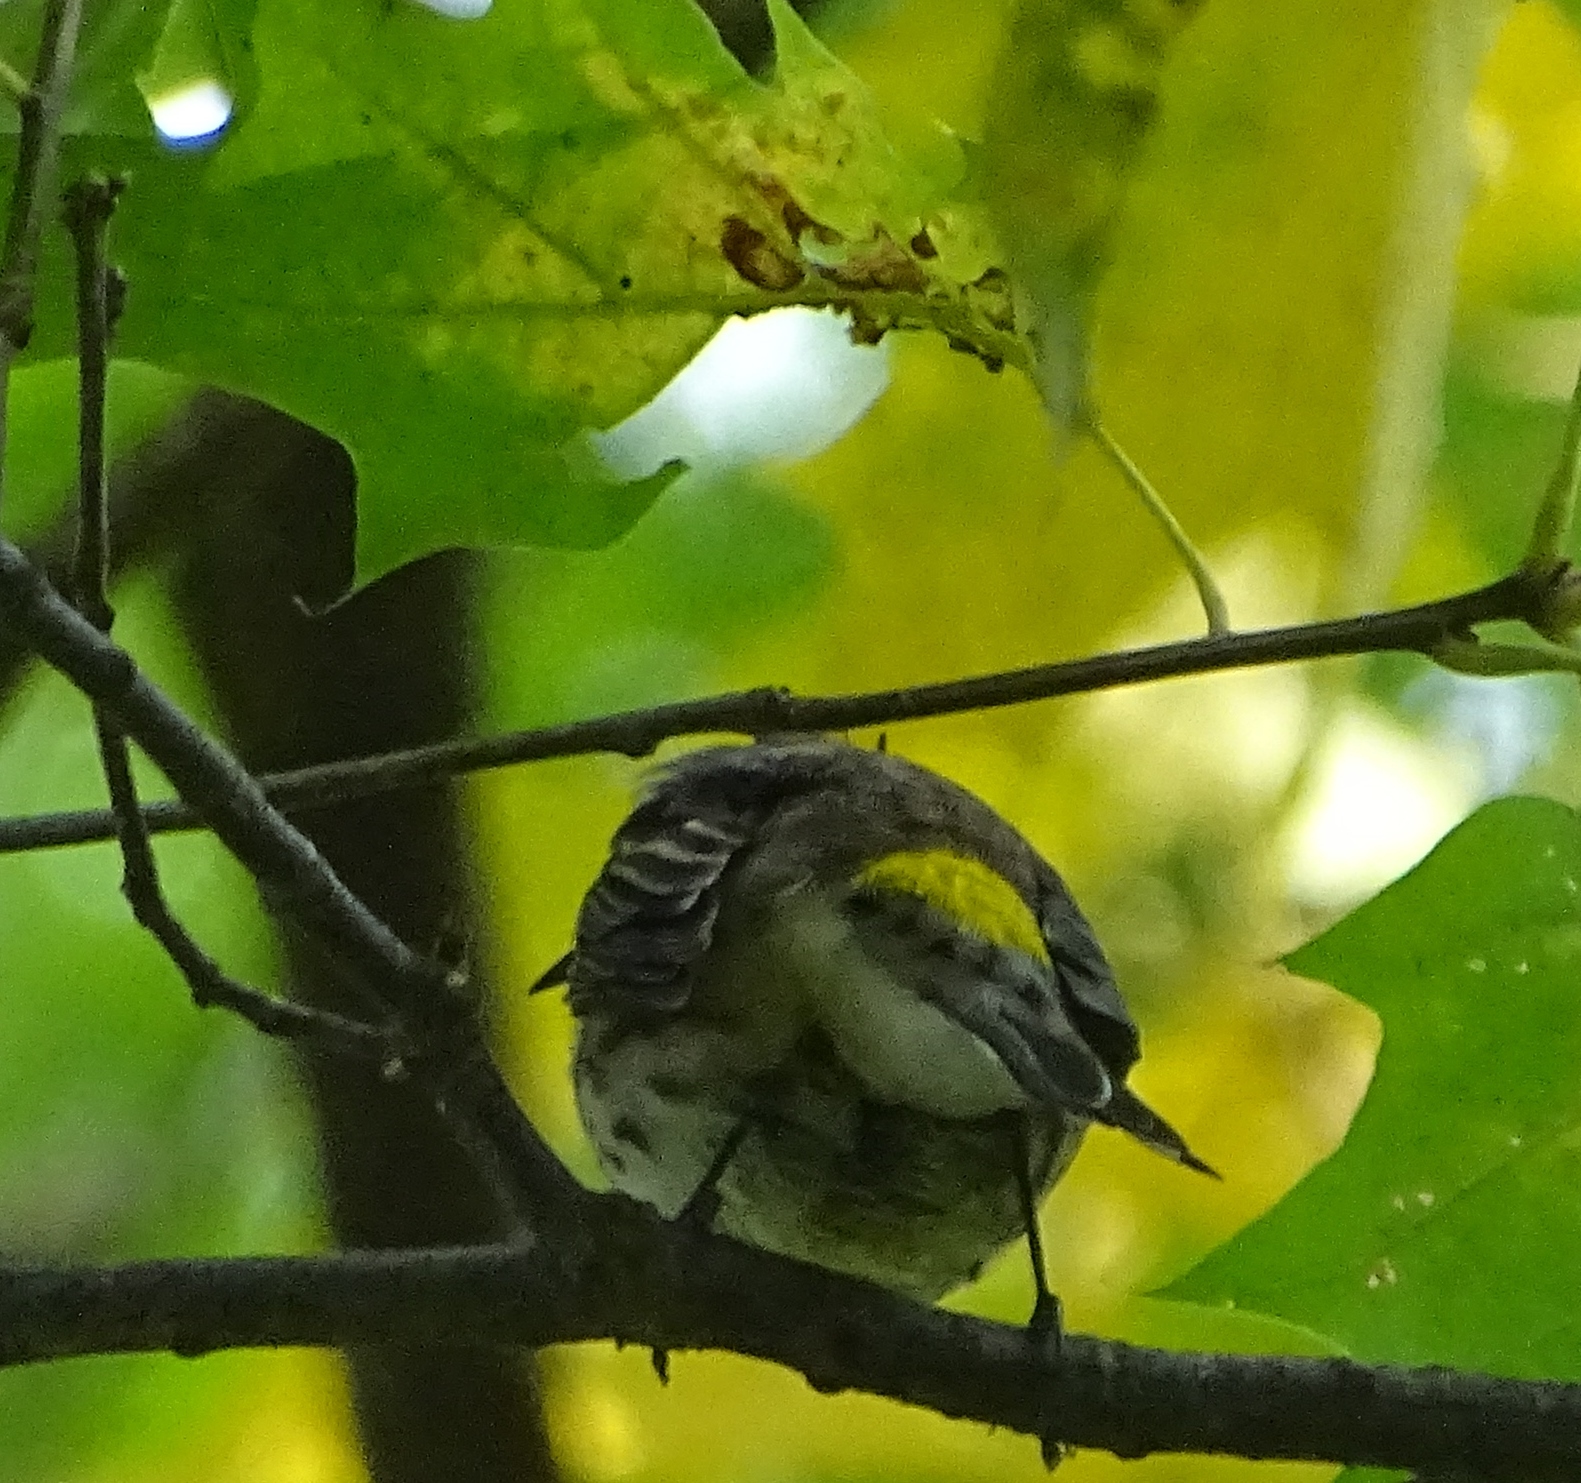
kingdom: Animalia
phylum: Chordata
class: Aves
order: Passeriformes
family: Parulidae
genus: Setophaga
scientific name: Setophaga coronata
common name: Myrtle warbler
